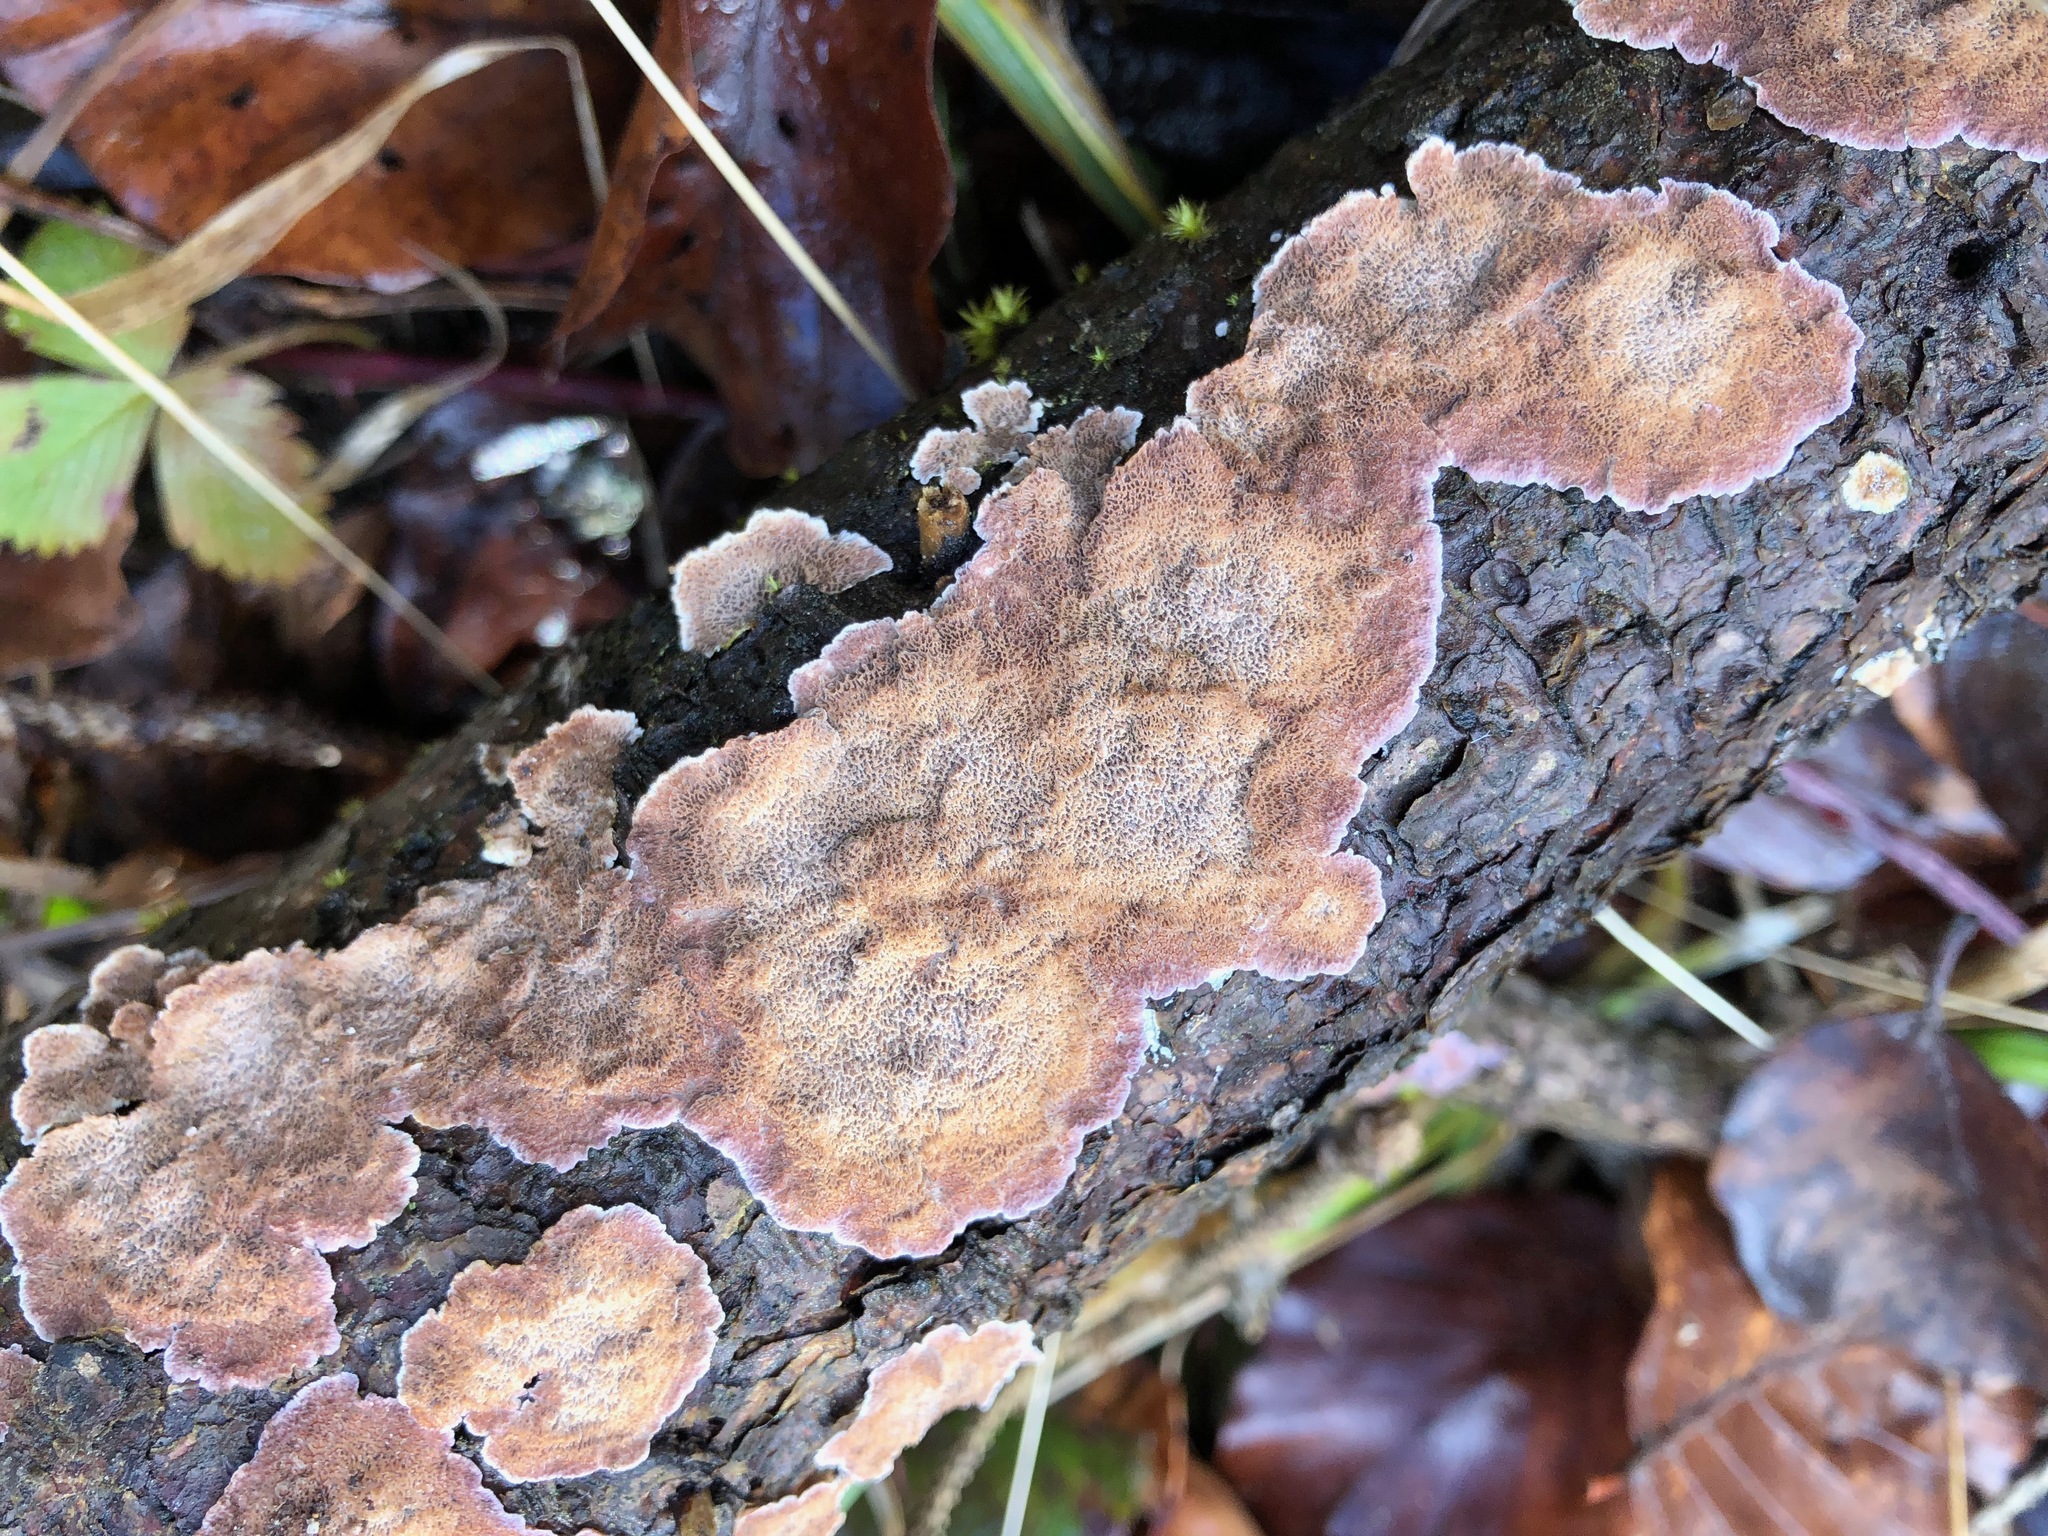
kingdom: Fungi
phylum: Basidiomycota
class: Agaricomycetes
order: Hymenochaetales
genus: Trichaptum
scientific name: Trichaptum abietinum
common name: Purplepore bracket
